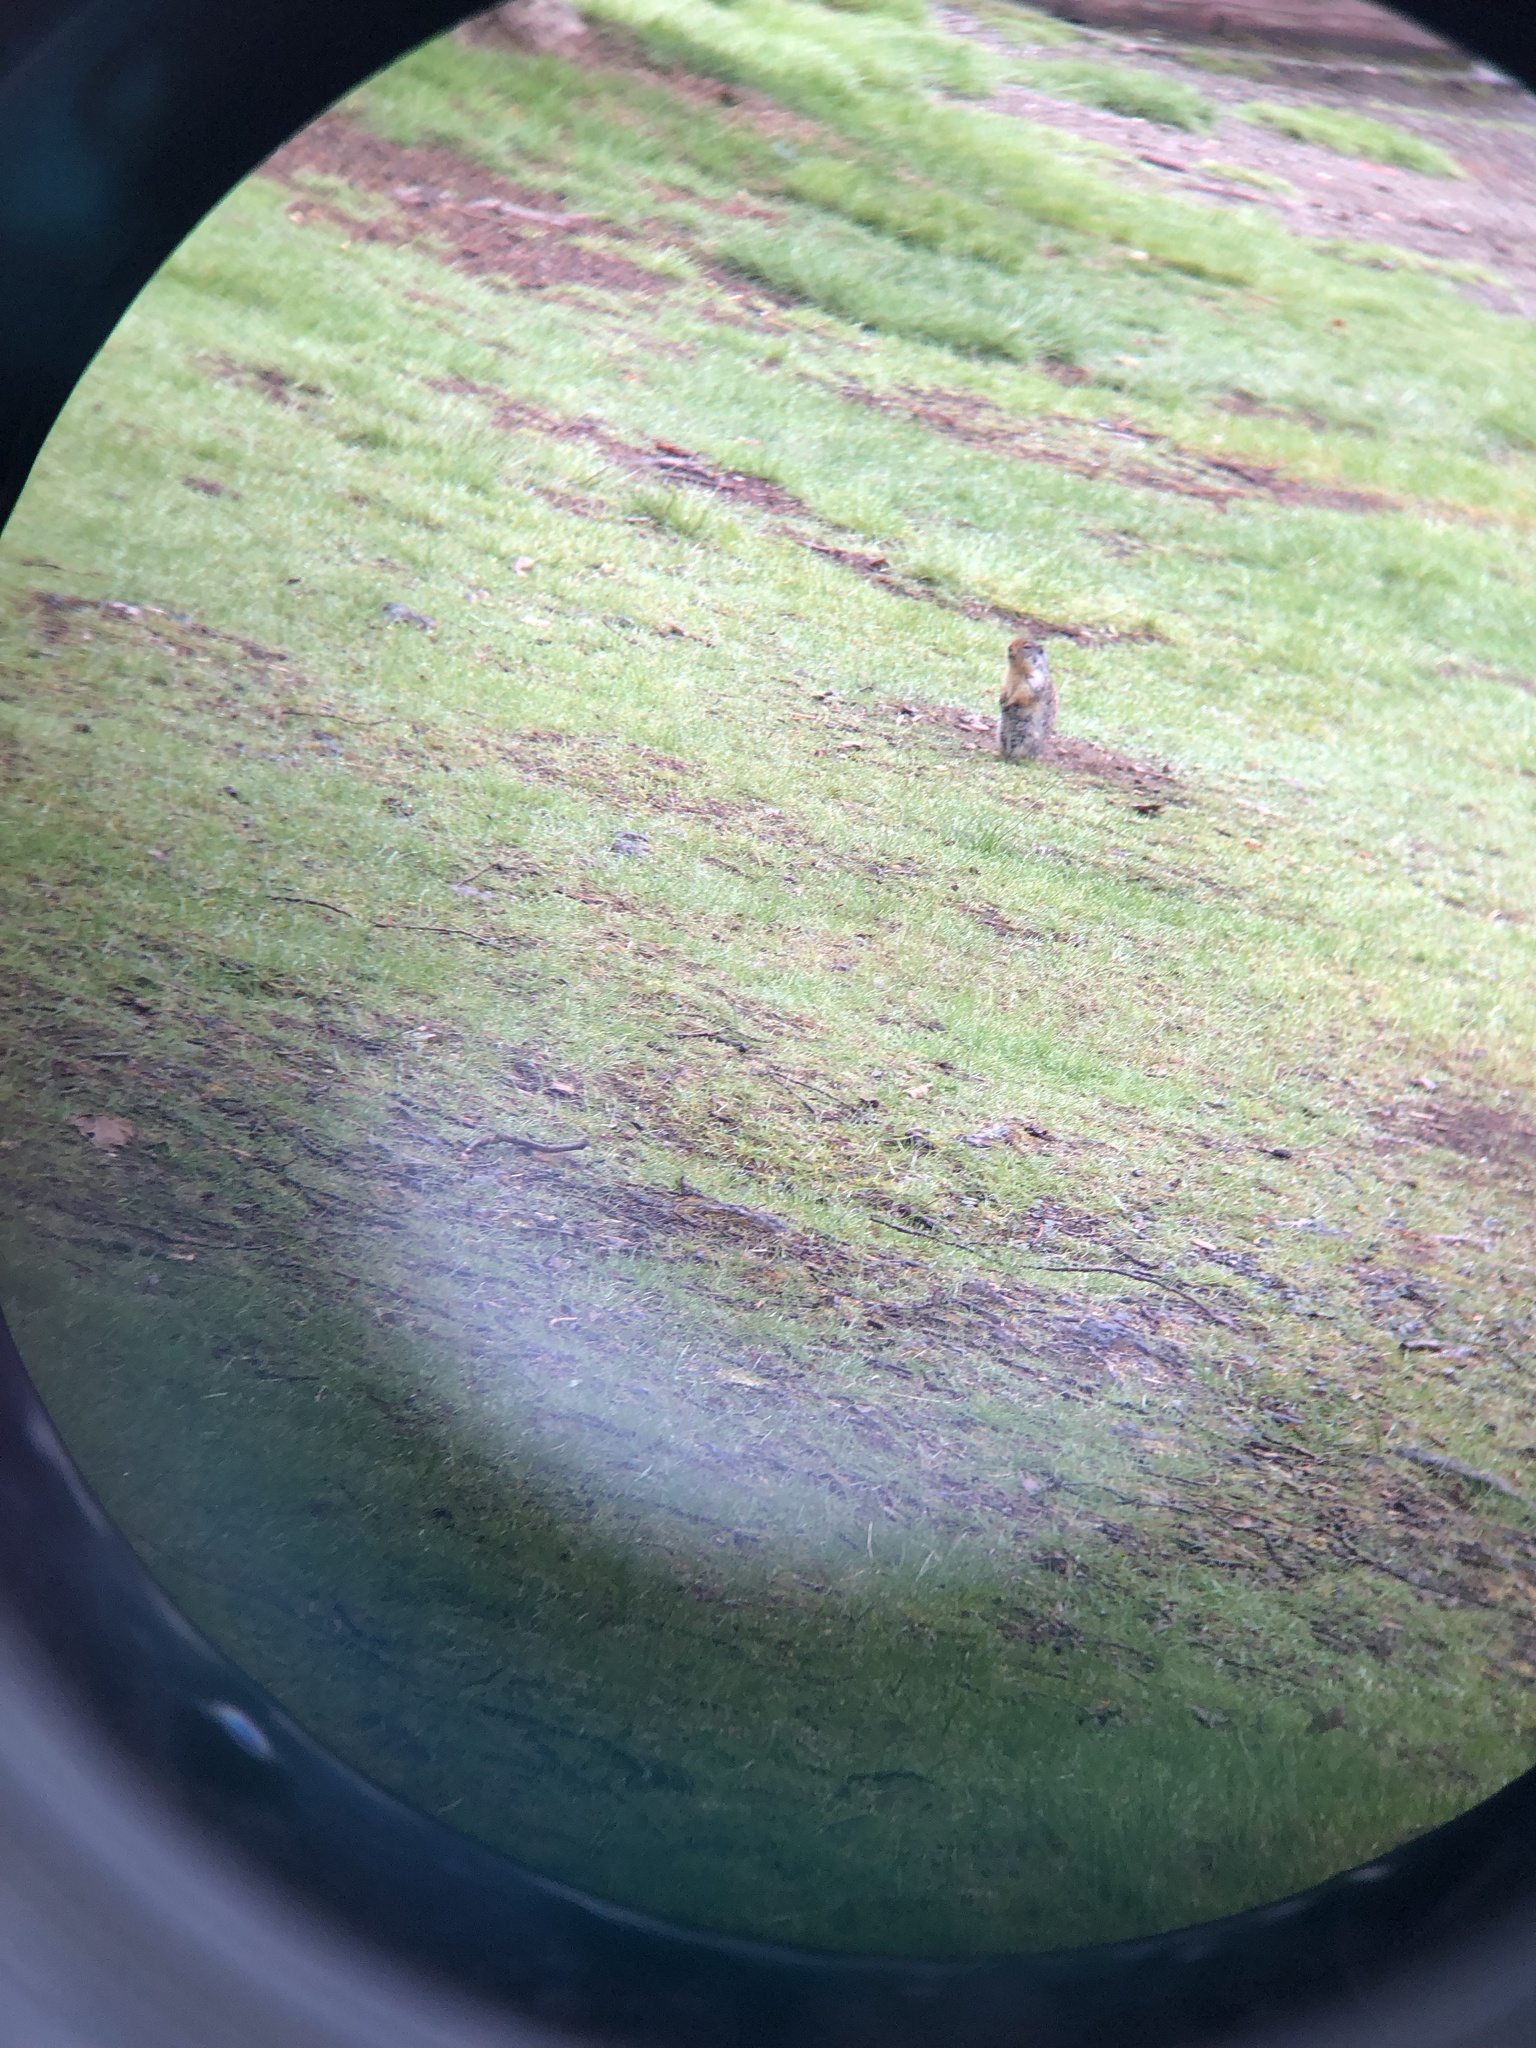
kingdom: Animalia
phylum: Chordata
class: Mammalia
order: Rodentia
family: Sciuridae
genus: Urocitellus
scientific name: Urocitellus columbianus
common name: Columbian ground squirrel
